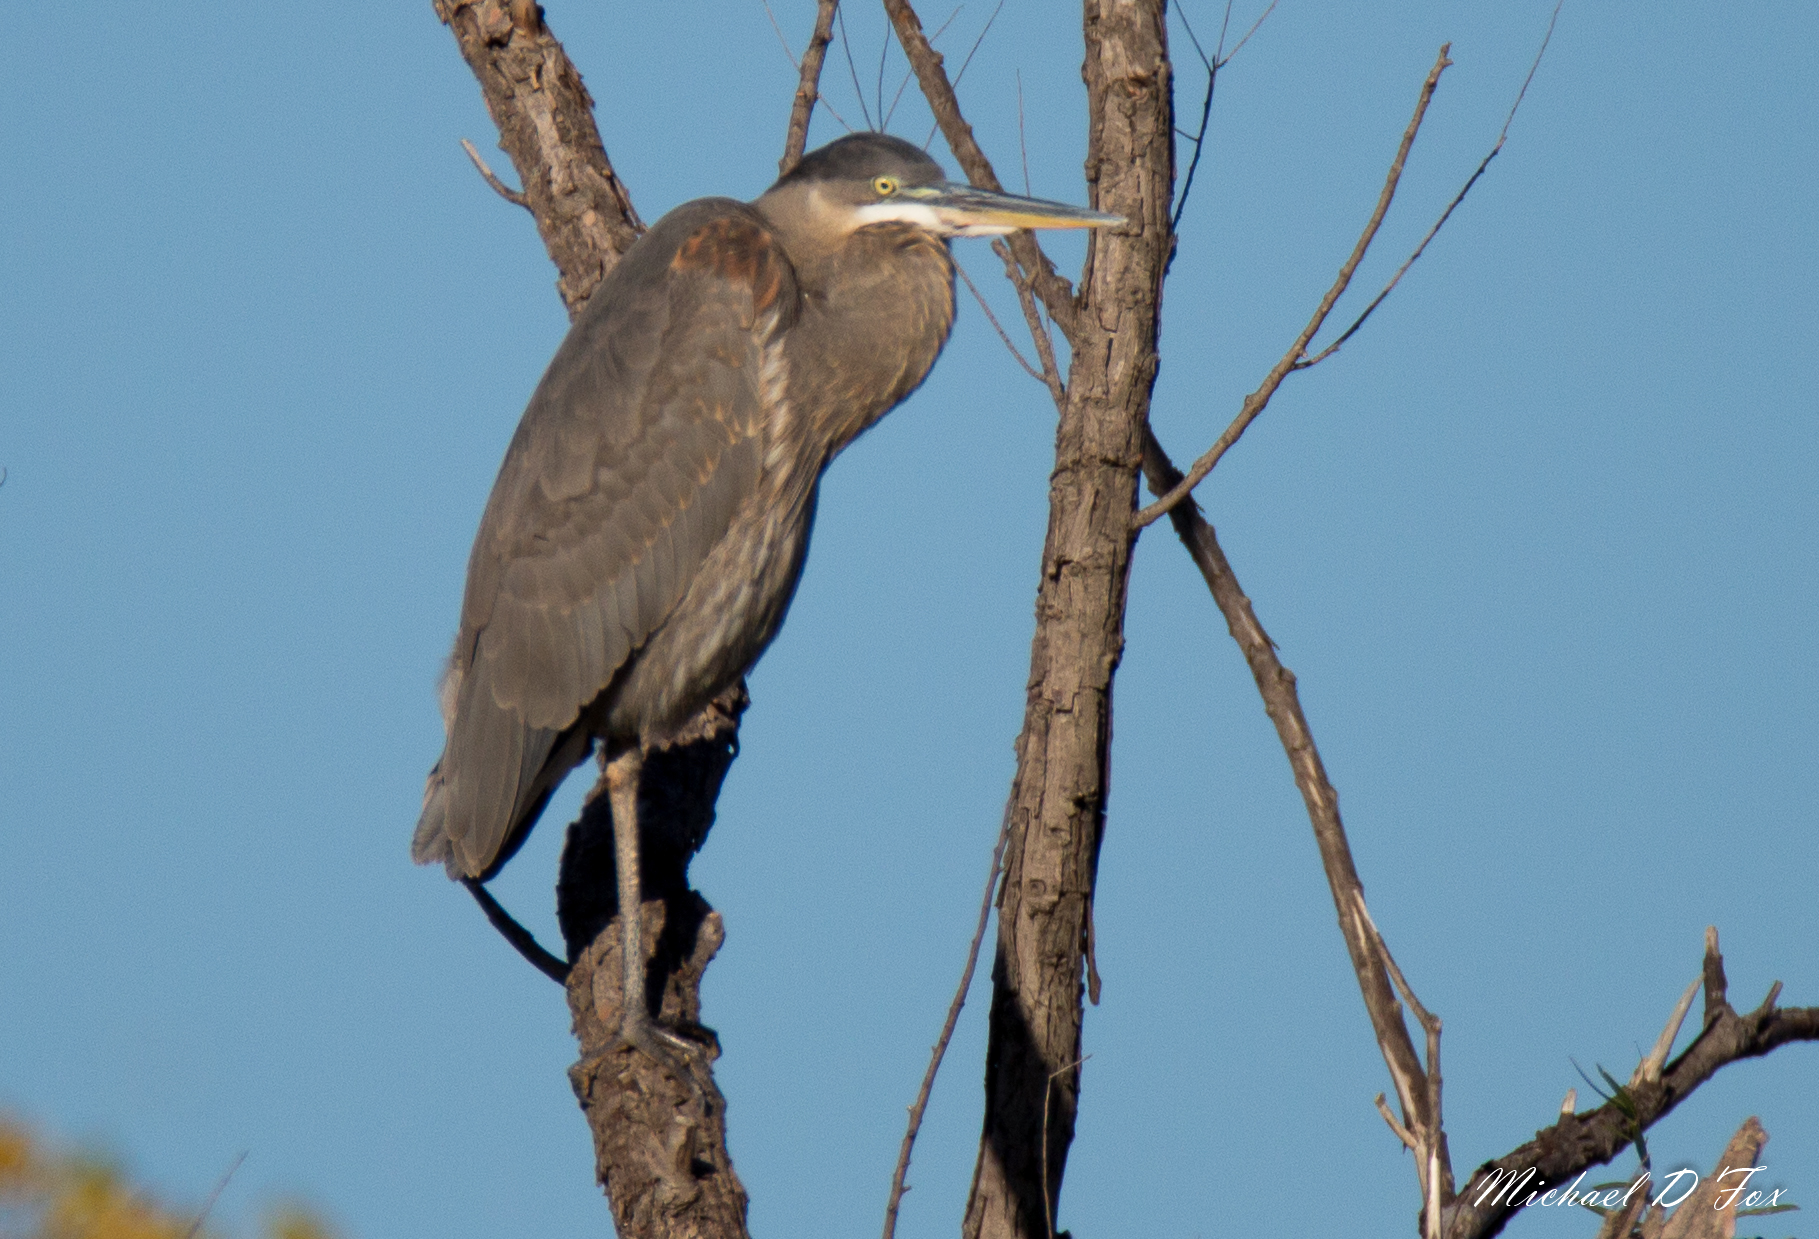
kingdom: Animalia
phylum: Chordata
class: Aves
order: Pelecaniformes
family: Ardeidae
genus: Ardea
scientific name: Ardea herodias
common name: Great blue heron
